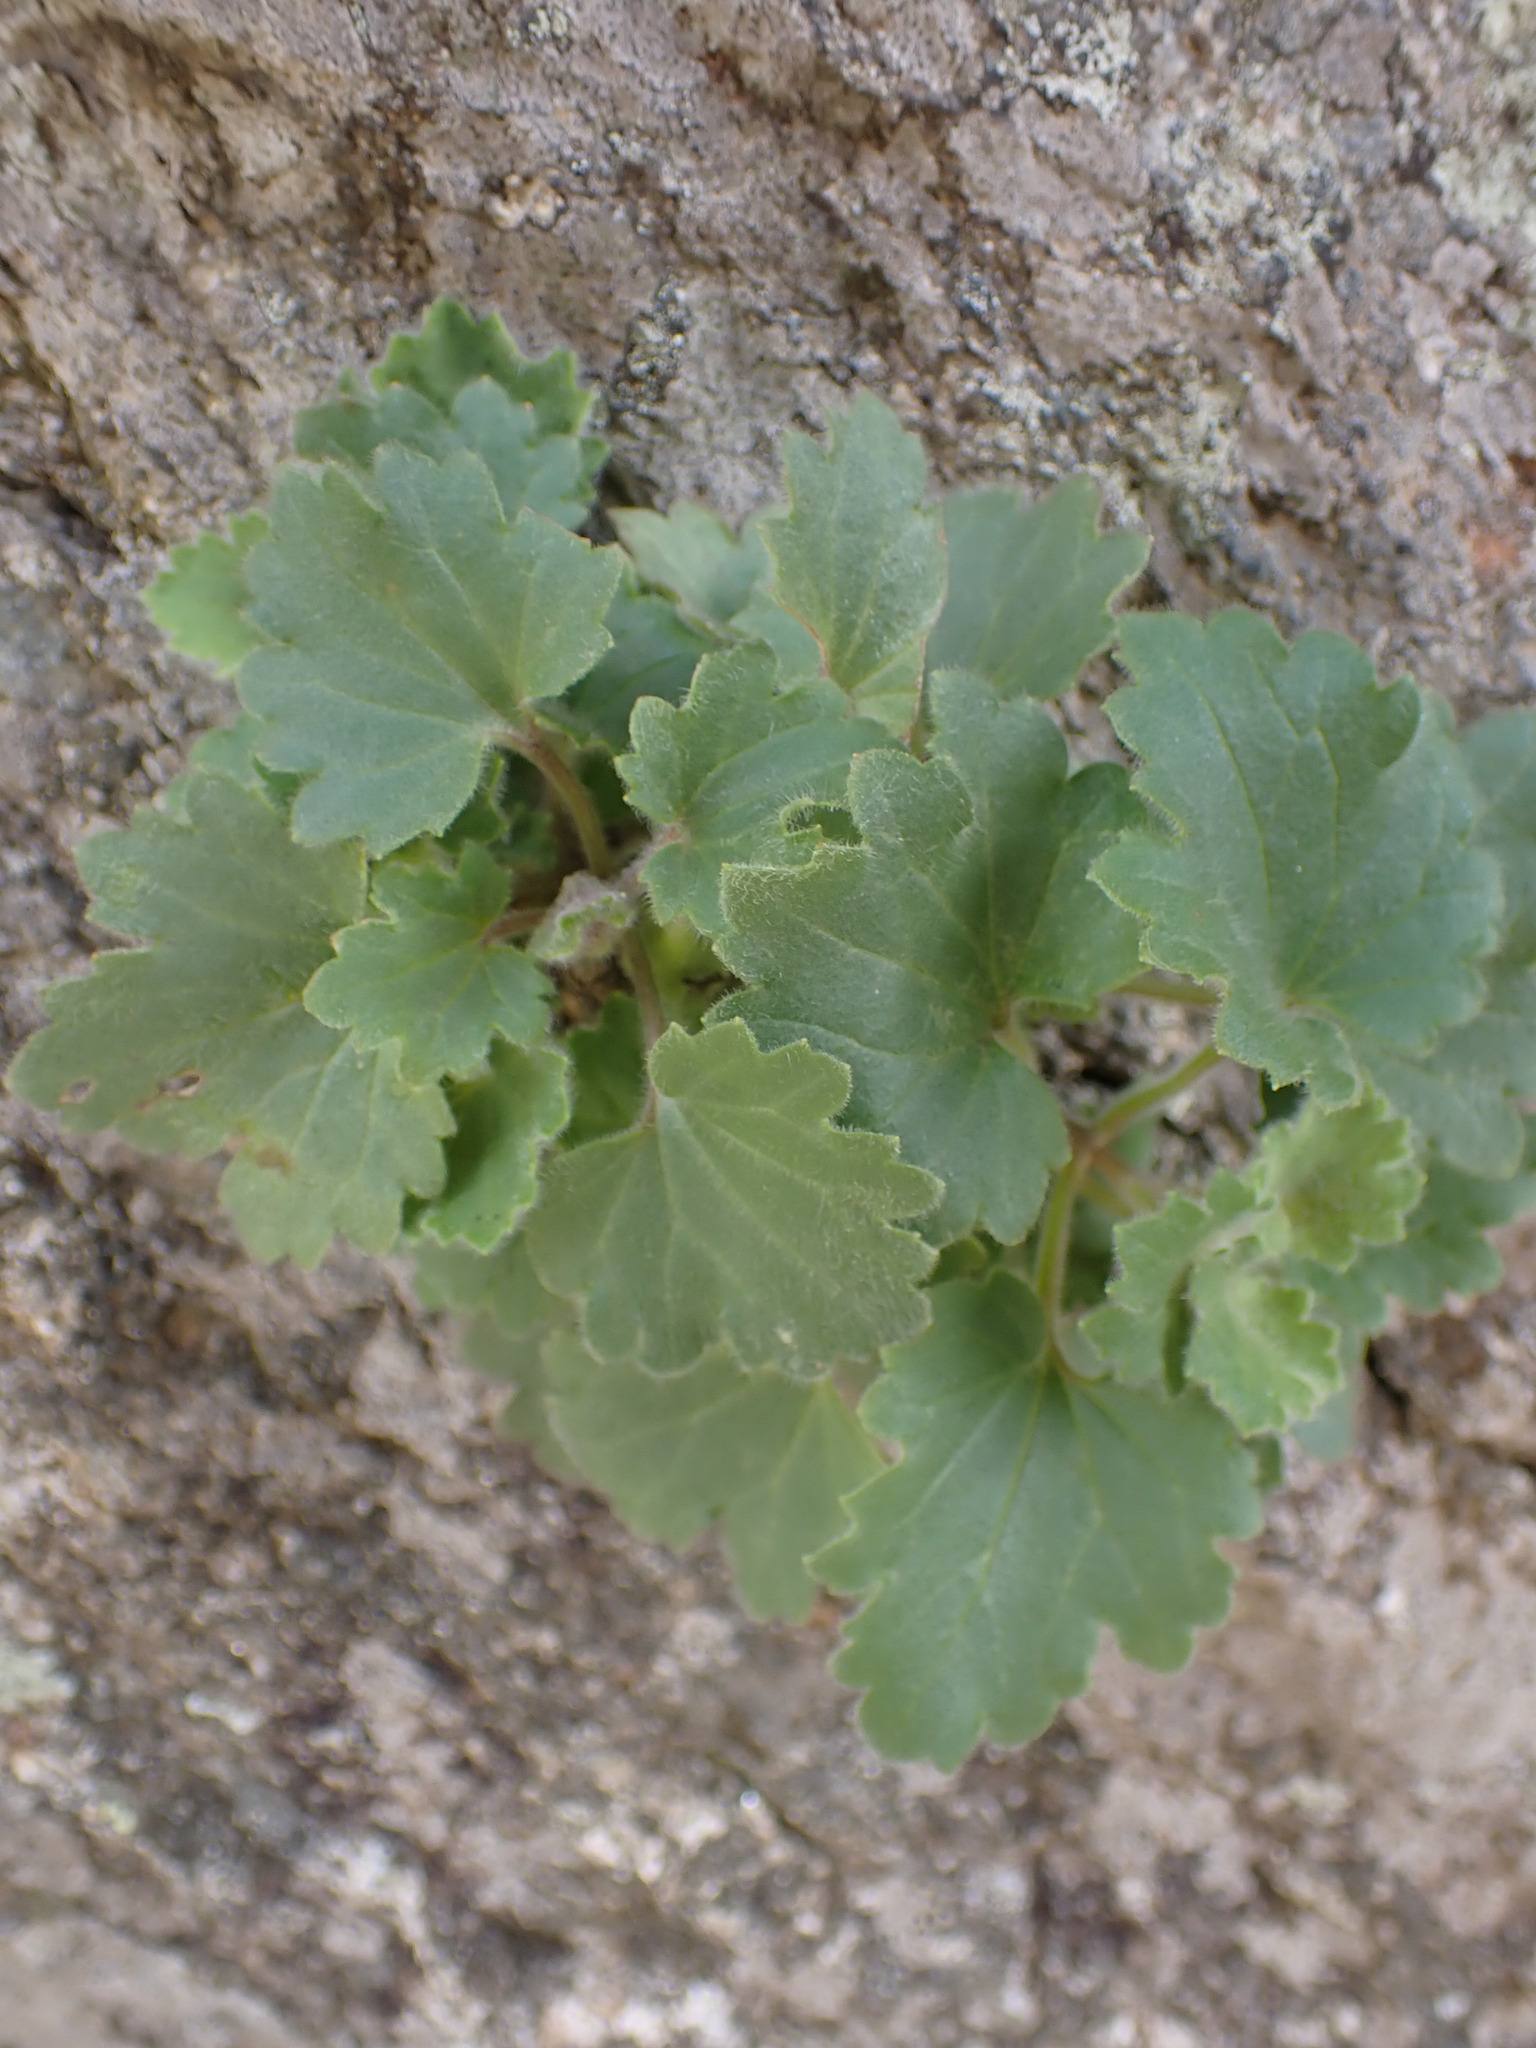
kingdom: Plantae
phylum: Tracheophyta
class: Magnoliopsida
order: Lamiales
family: Plantaginaceae
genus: Asarina
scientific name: Asarina procumbens
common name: Trailing snapdragon
